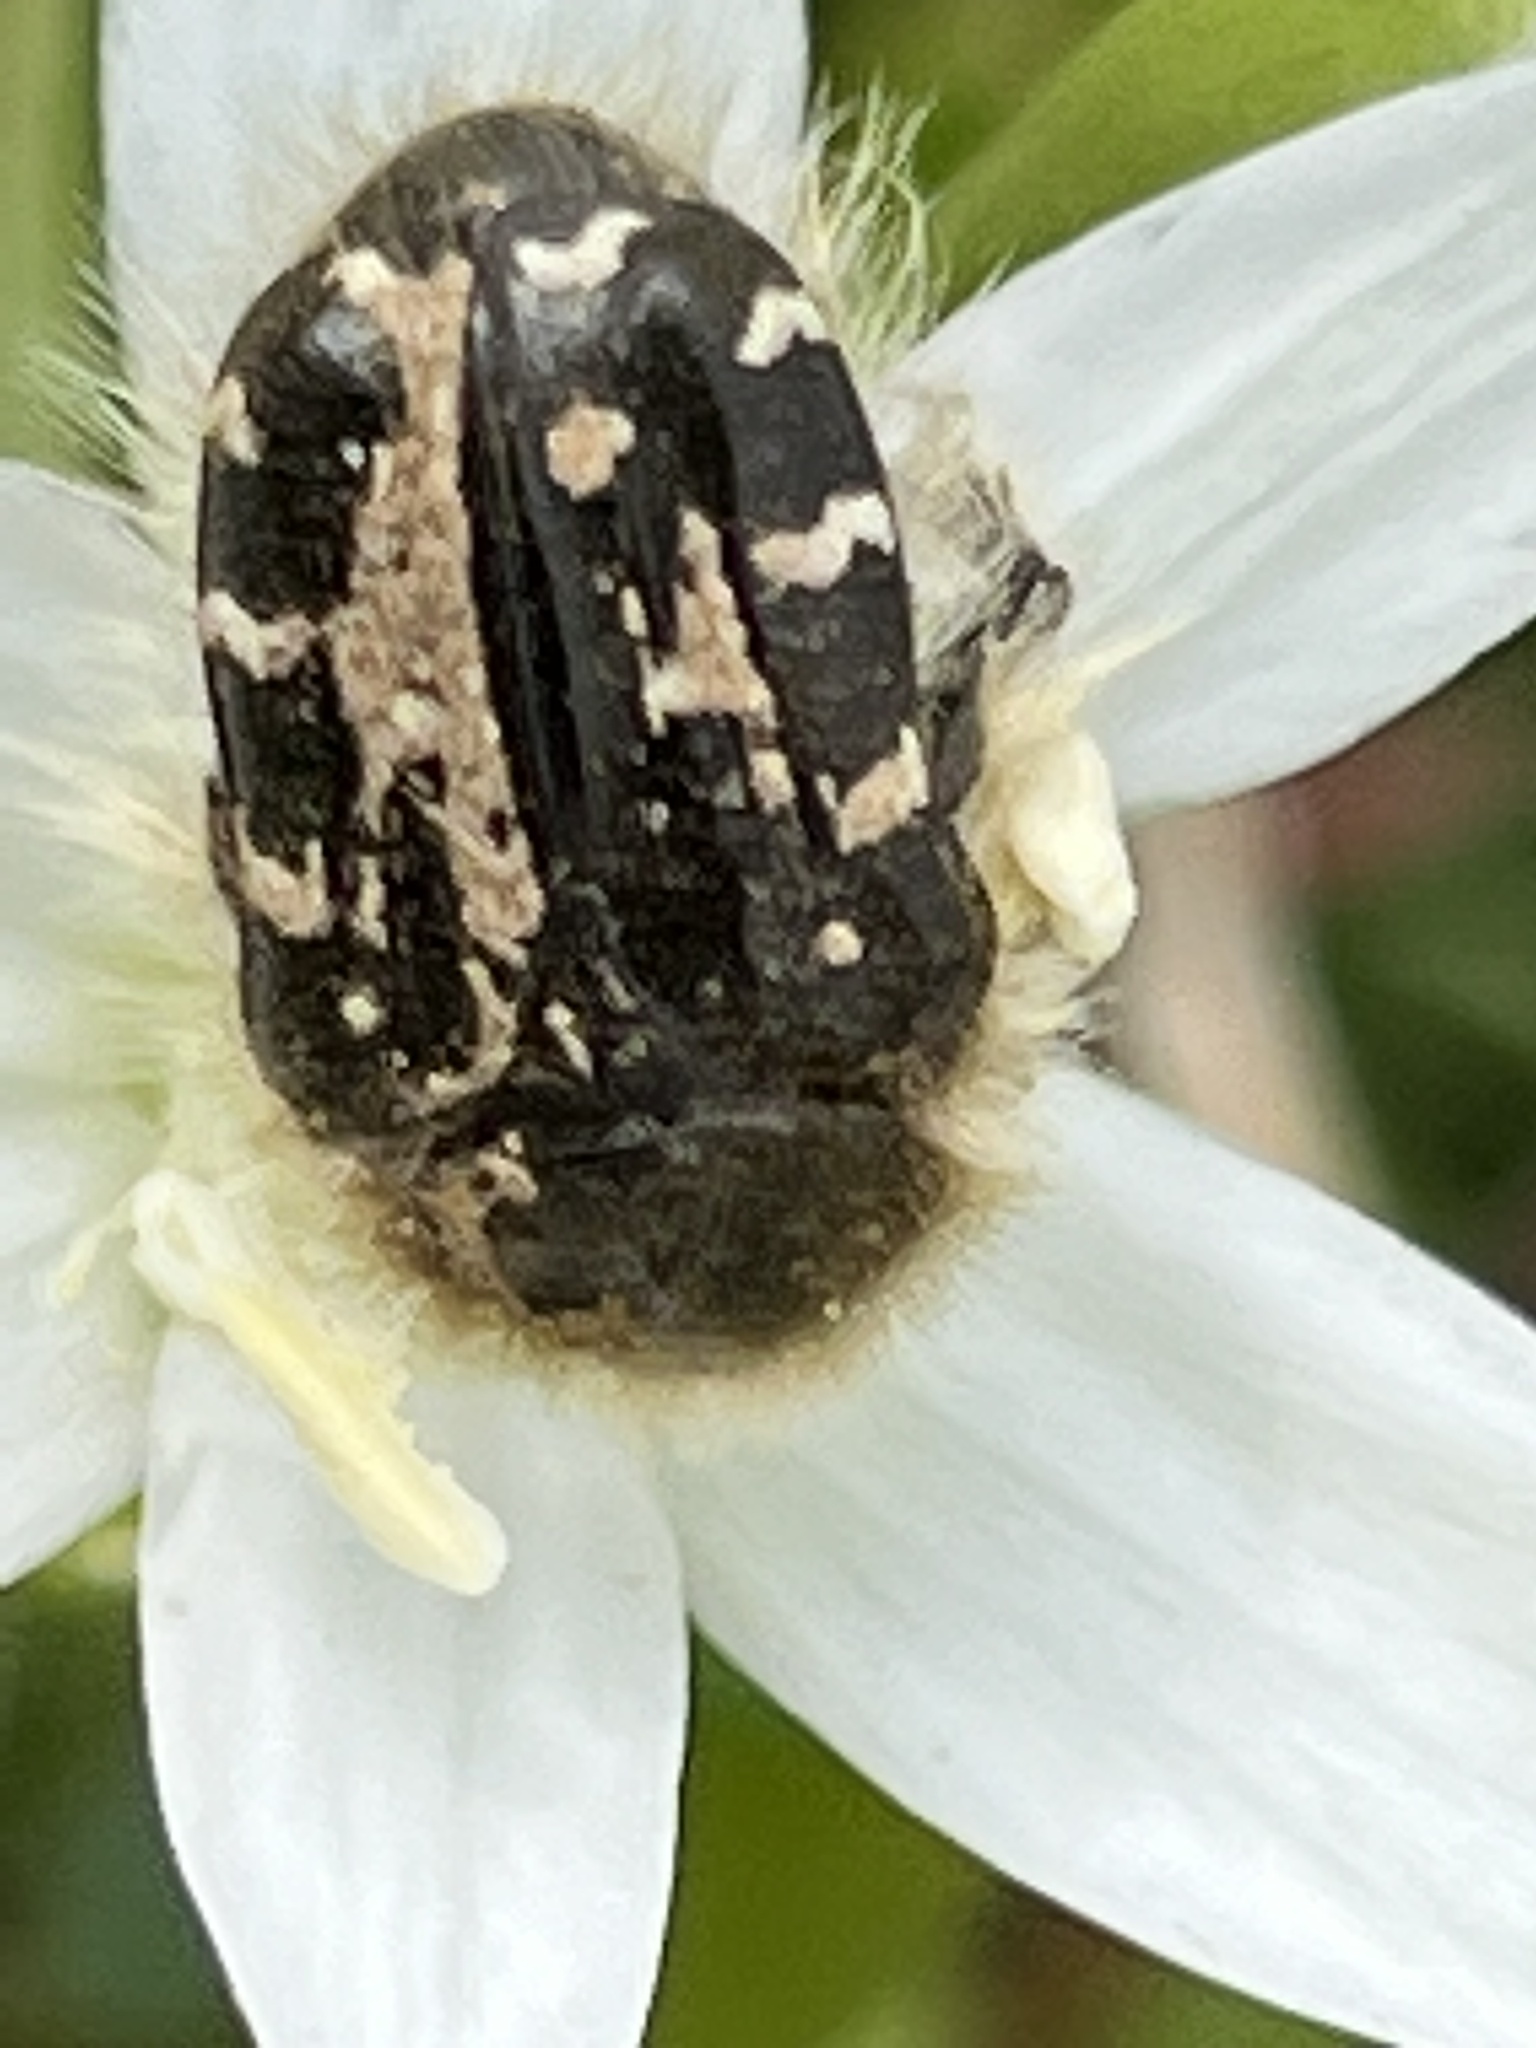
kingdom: Animalia
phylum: Arthropoda
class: Insecta
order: Coleoptera
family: Scarabaeidae
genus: Tropinota
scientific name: Tropinota hirta
